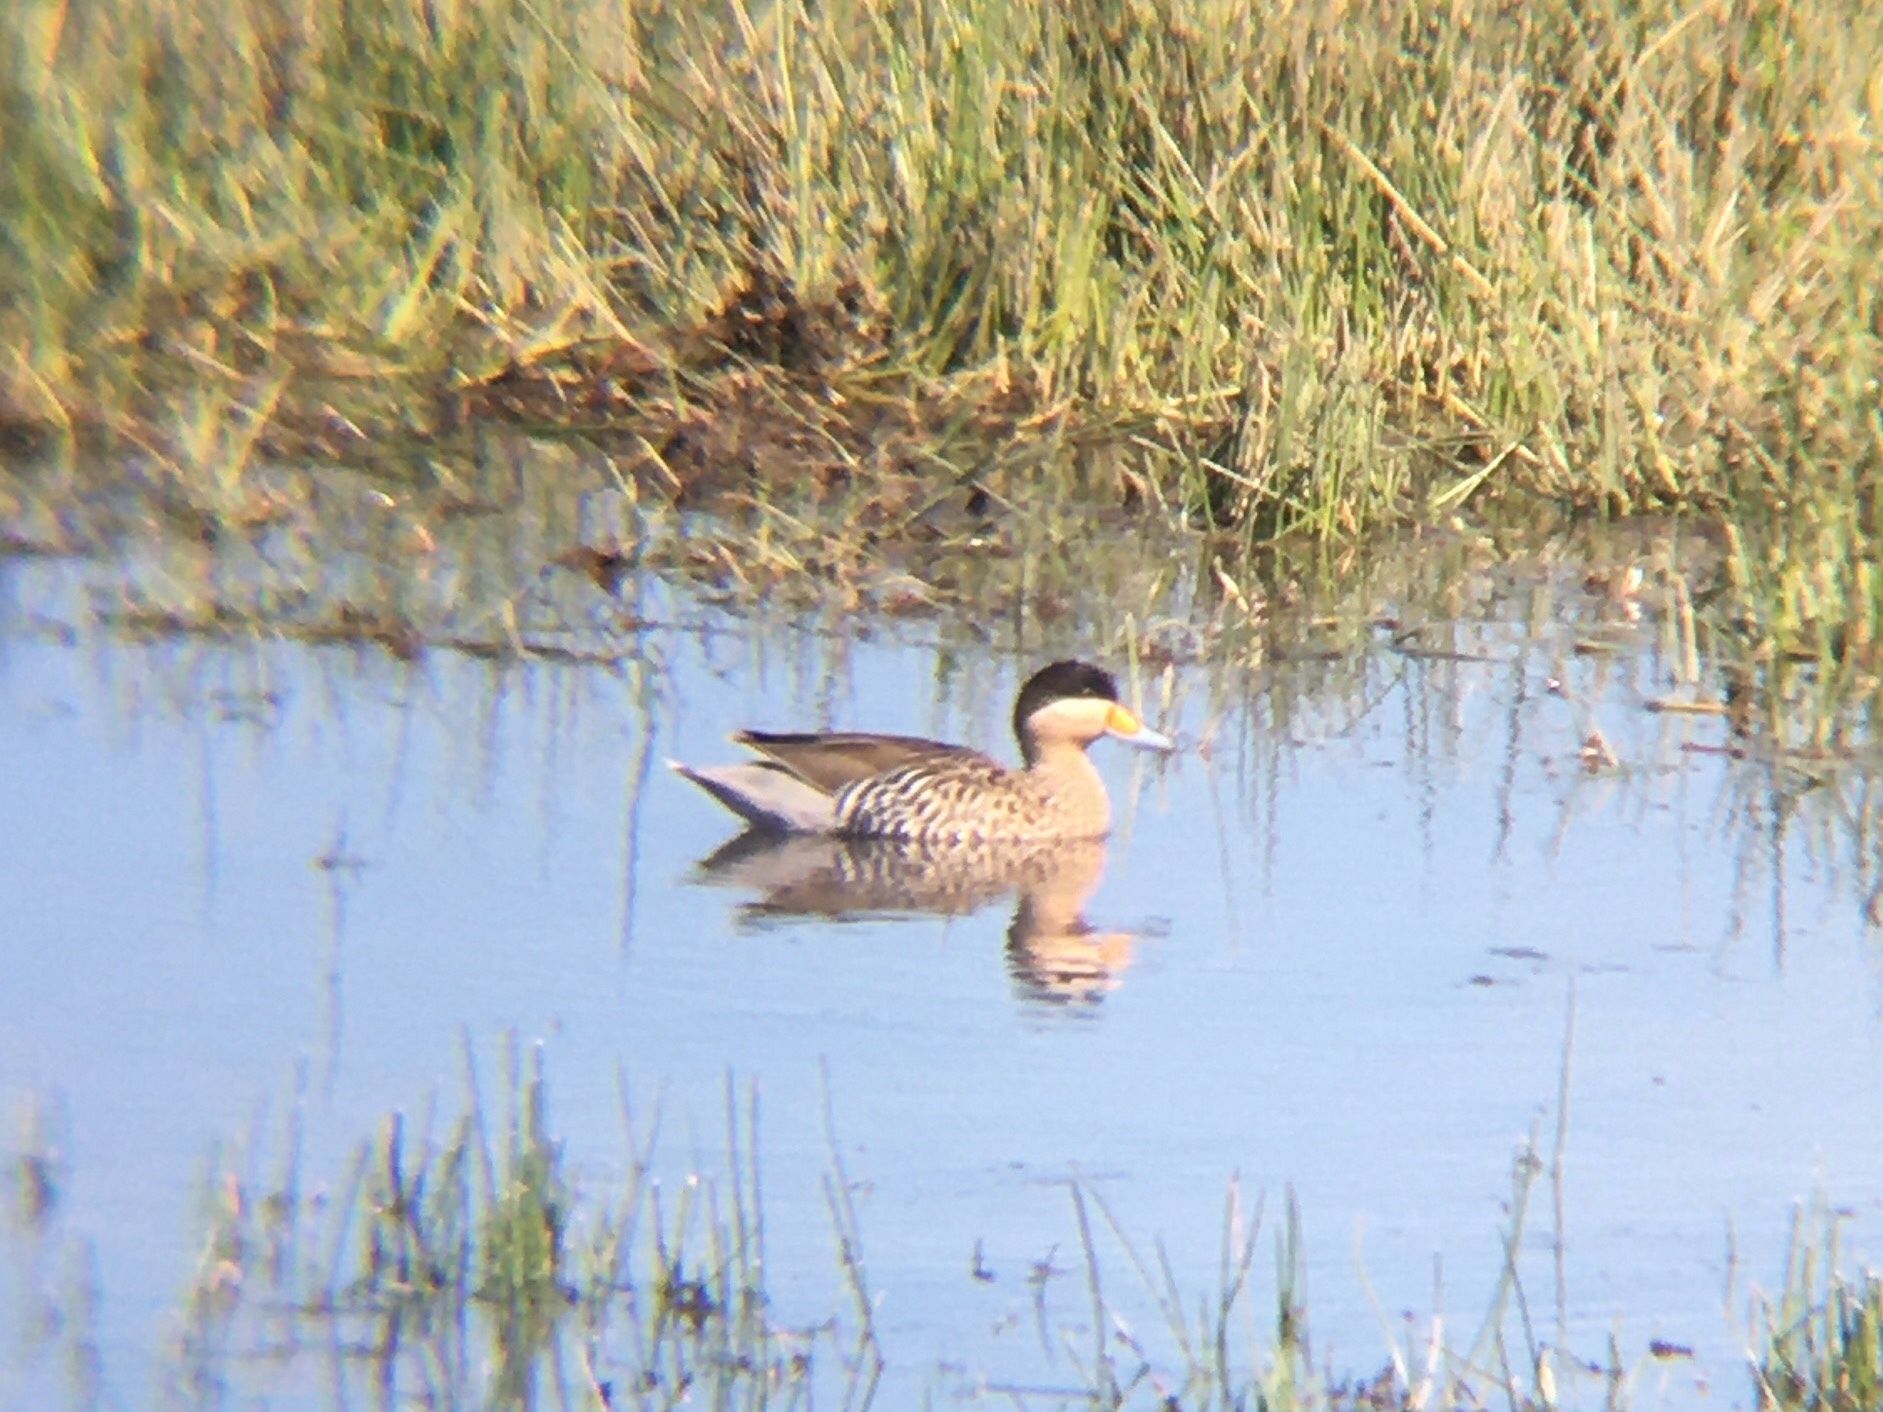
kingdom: Animalia
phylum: Chordata
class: Aves
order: Anseriformes
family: Anatidae
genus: Spatula
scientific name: Spatula versicolor
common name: Silver teal
